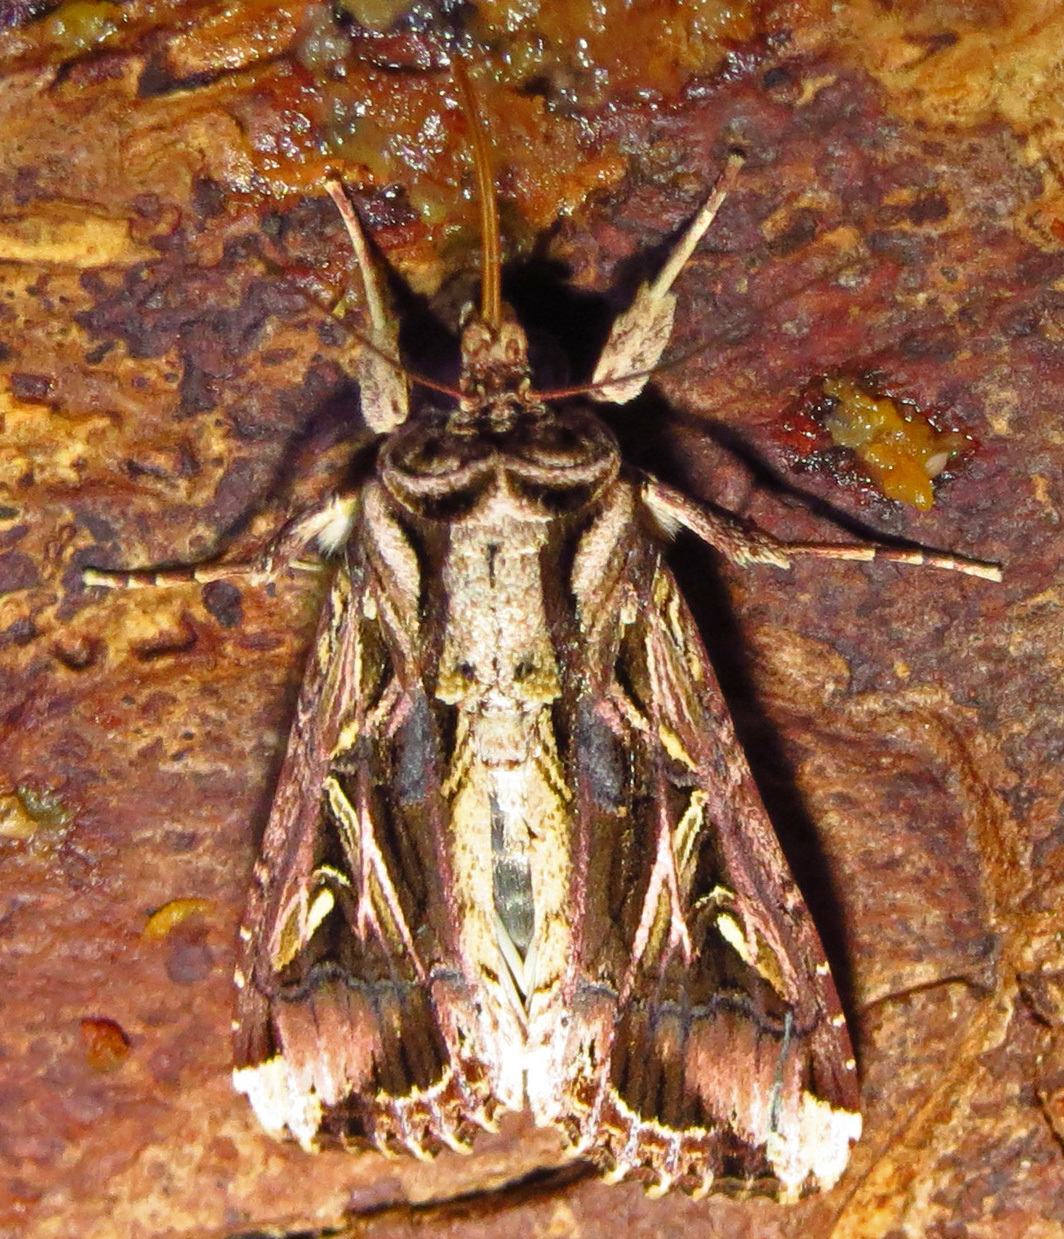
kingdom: Animalia
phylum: Arthropoda
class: Insecta
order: Lepidoptera
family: Noctuidae
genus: Spodoptera
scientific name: Spodoptera ornithogalli
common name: Yellow-striped armyworm
